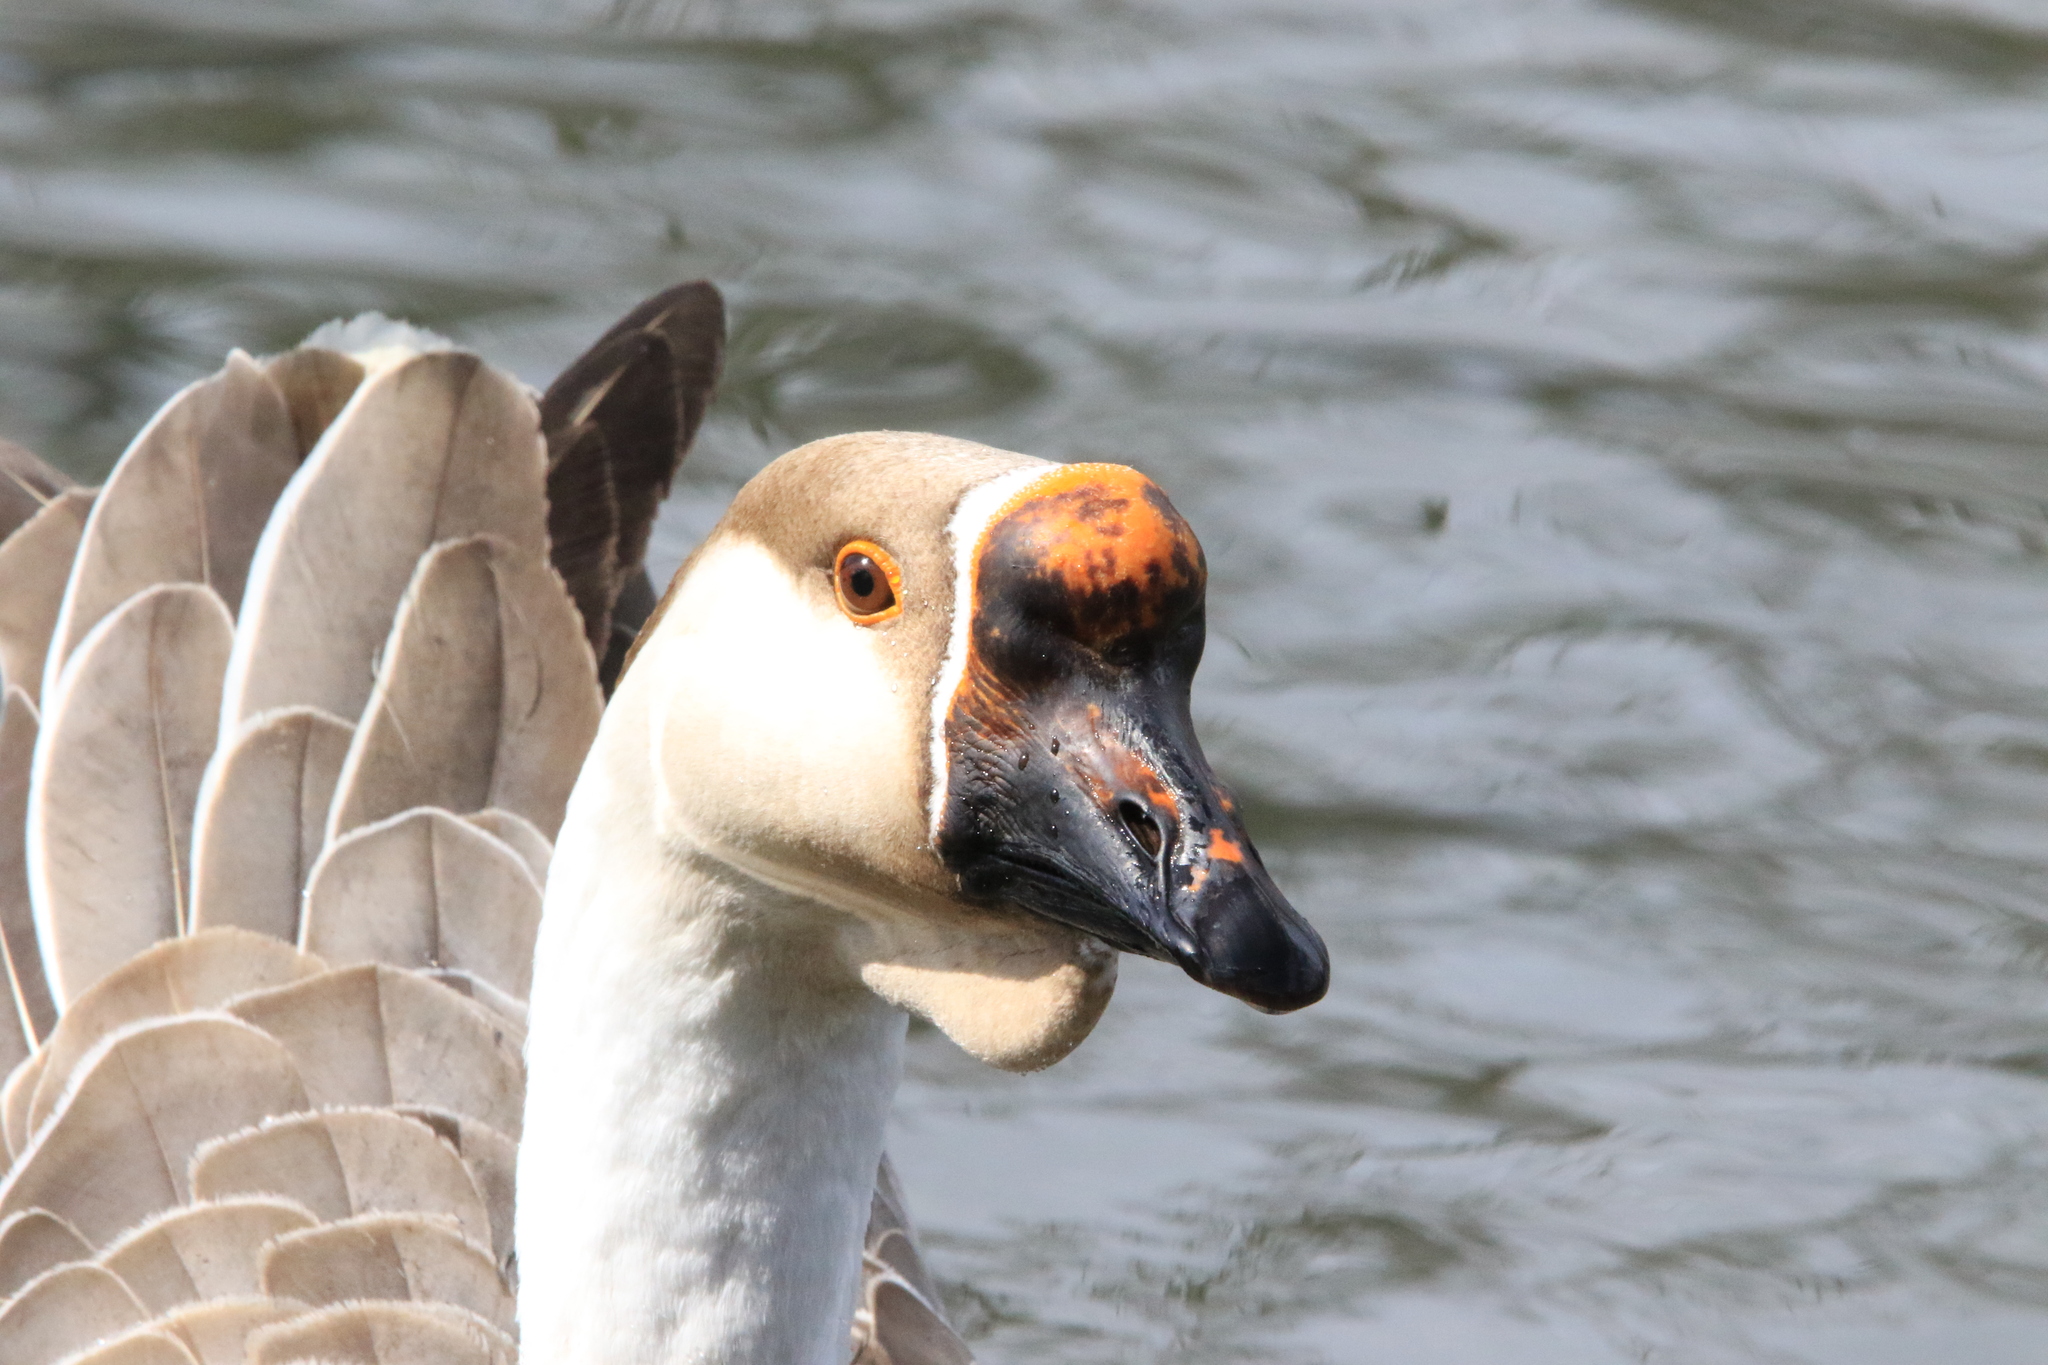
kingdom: Animalia
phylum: Chordata
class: Aves
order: Anseriformes
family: Anatidae
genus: Anser
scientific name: Anser cygnoides
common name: Swan goose
